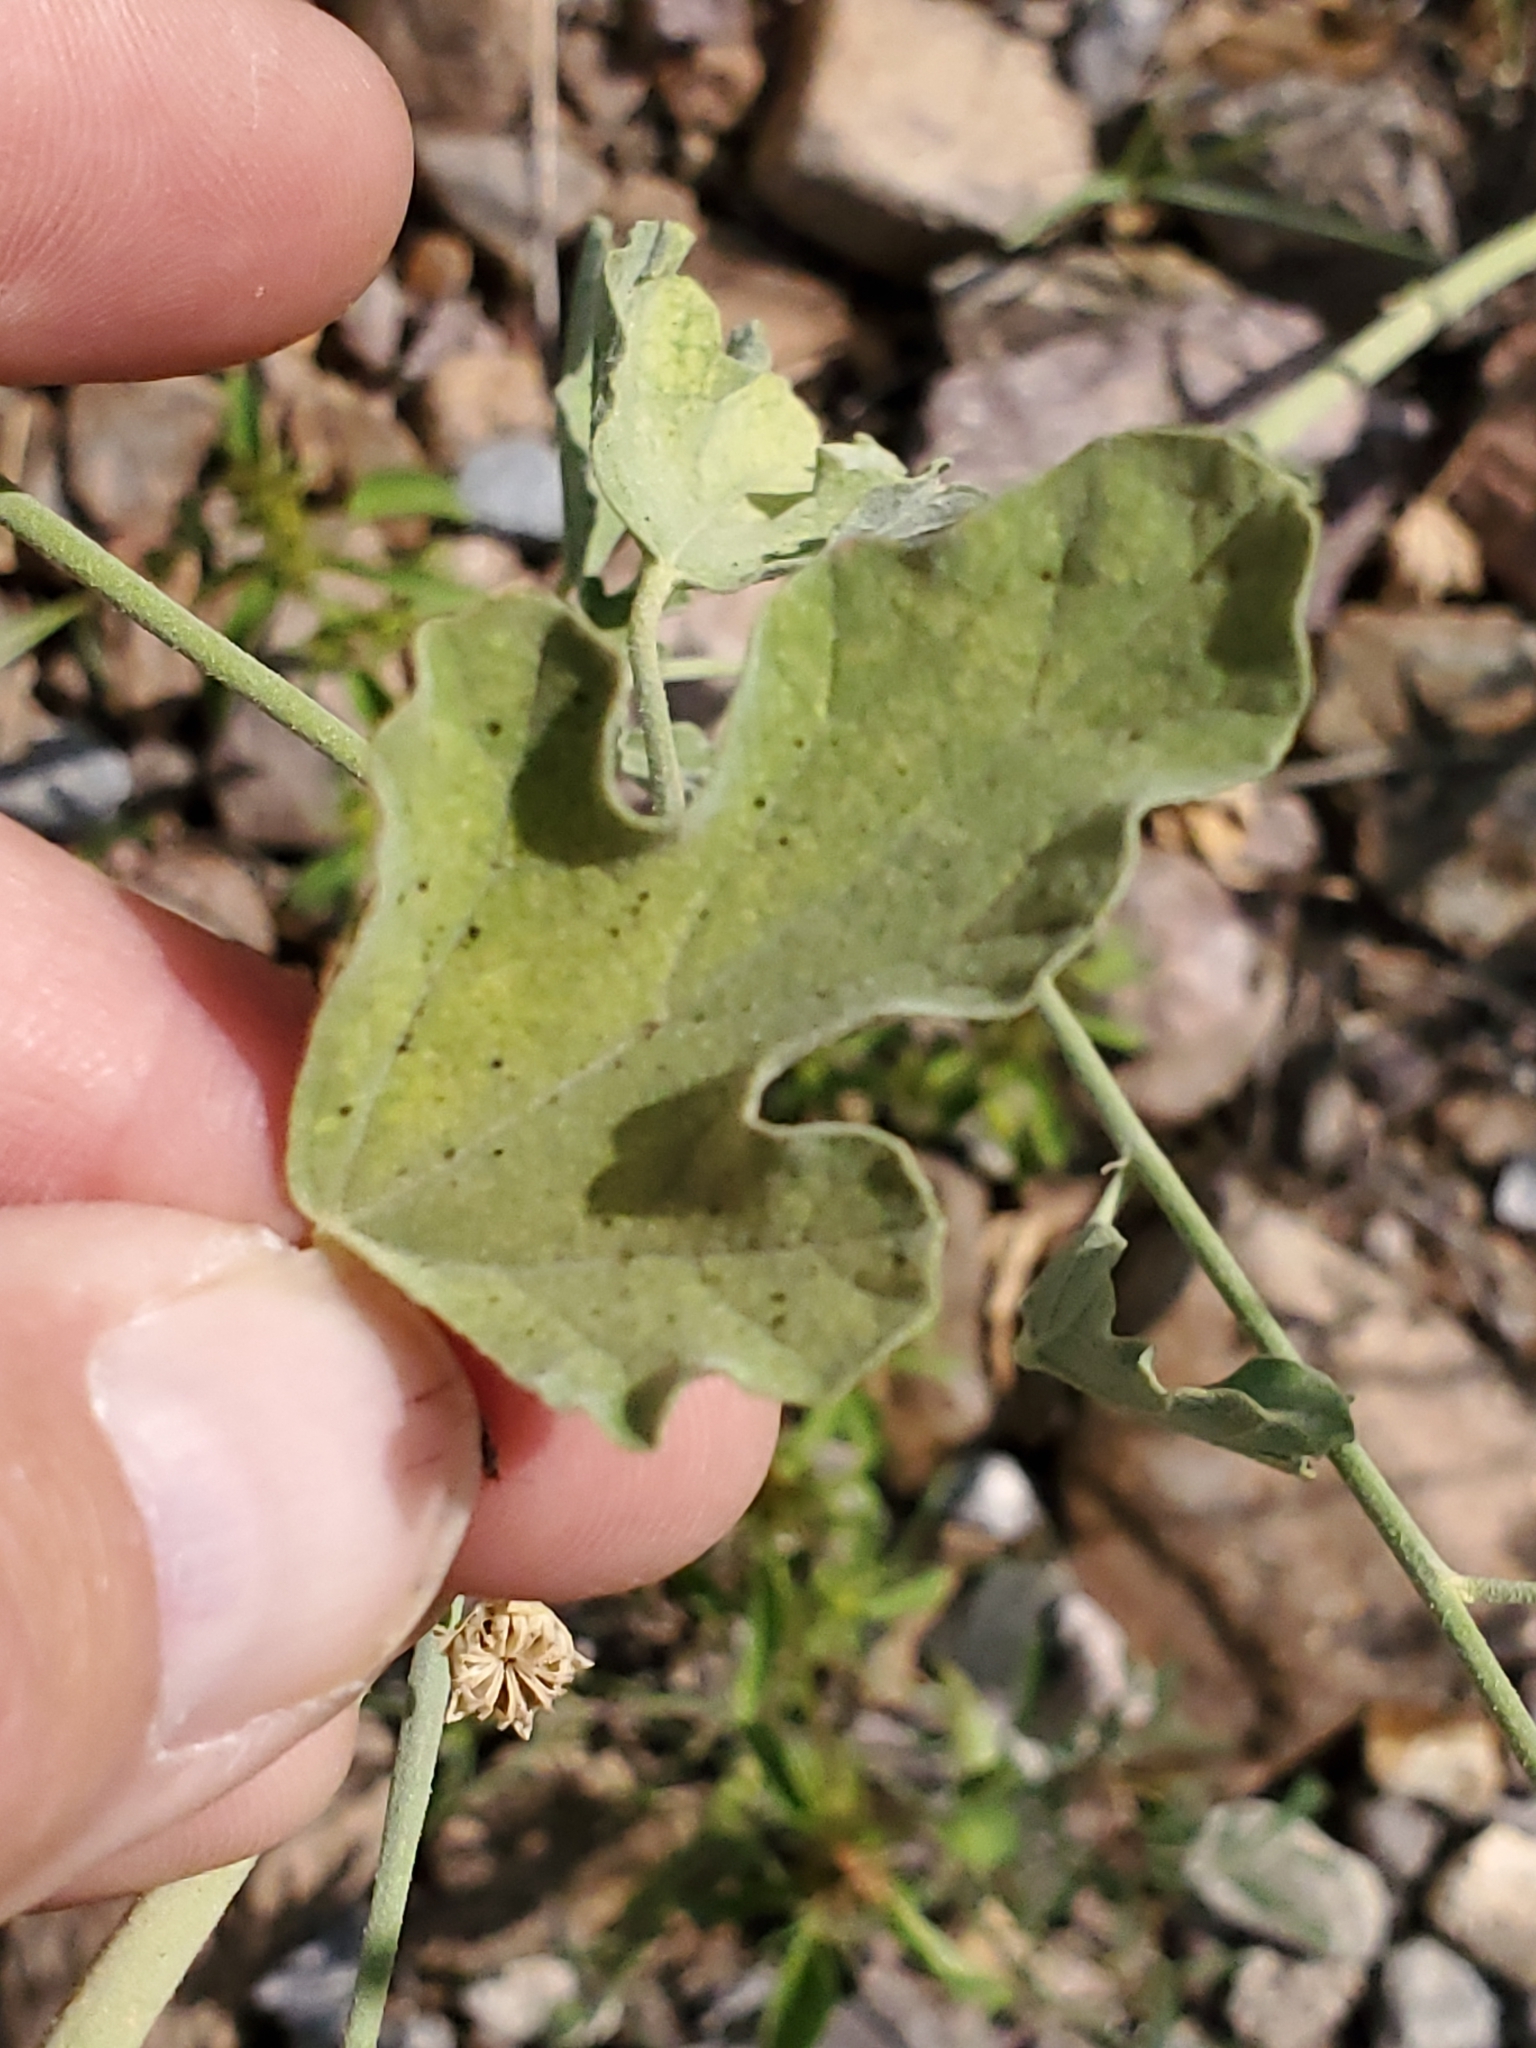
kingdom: Plantae
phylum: Tracheophyta
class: Magnoliopsida
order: Malvales
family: Malvaceae
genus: Sphaeralcea
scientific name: Sphaeralcea incana
